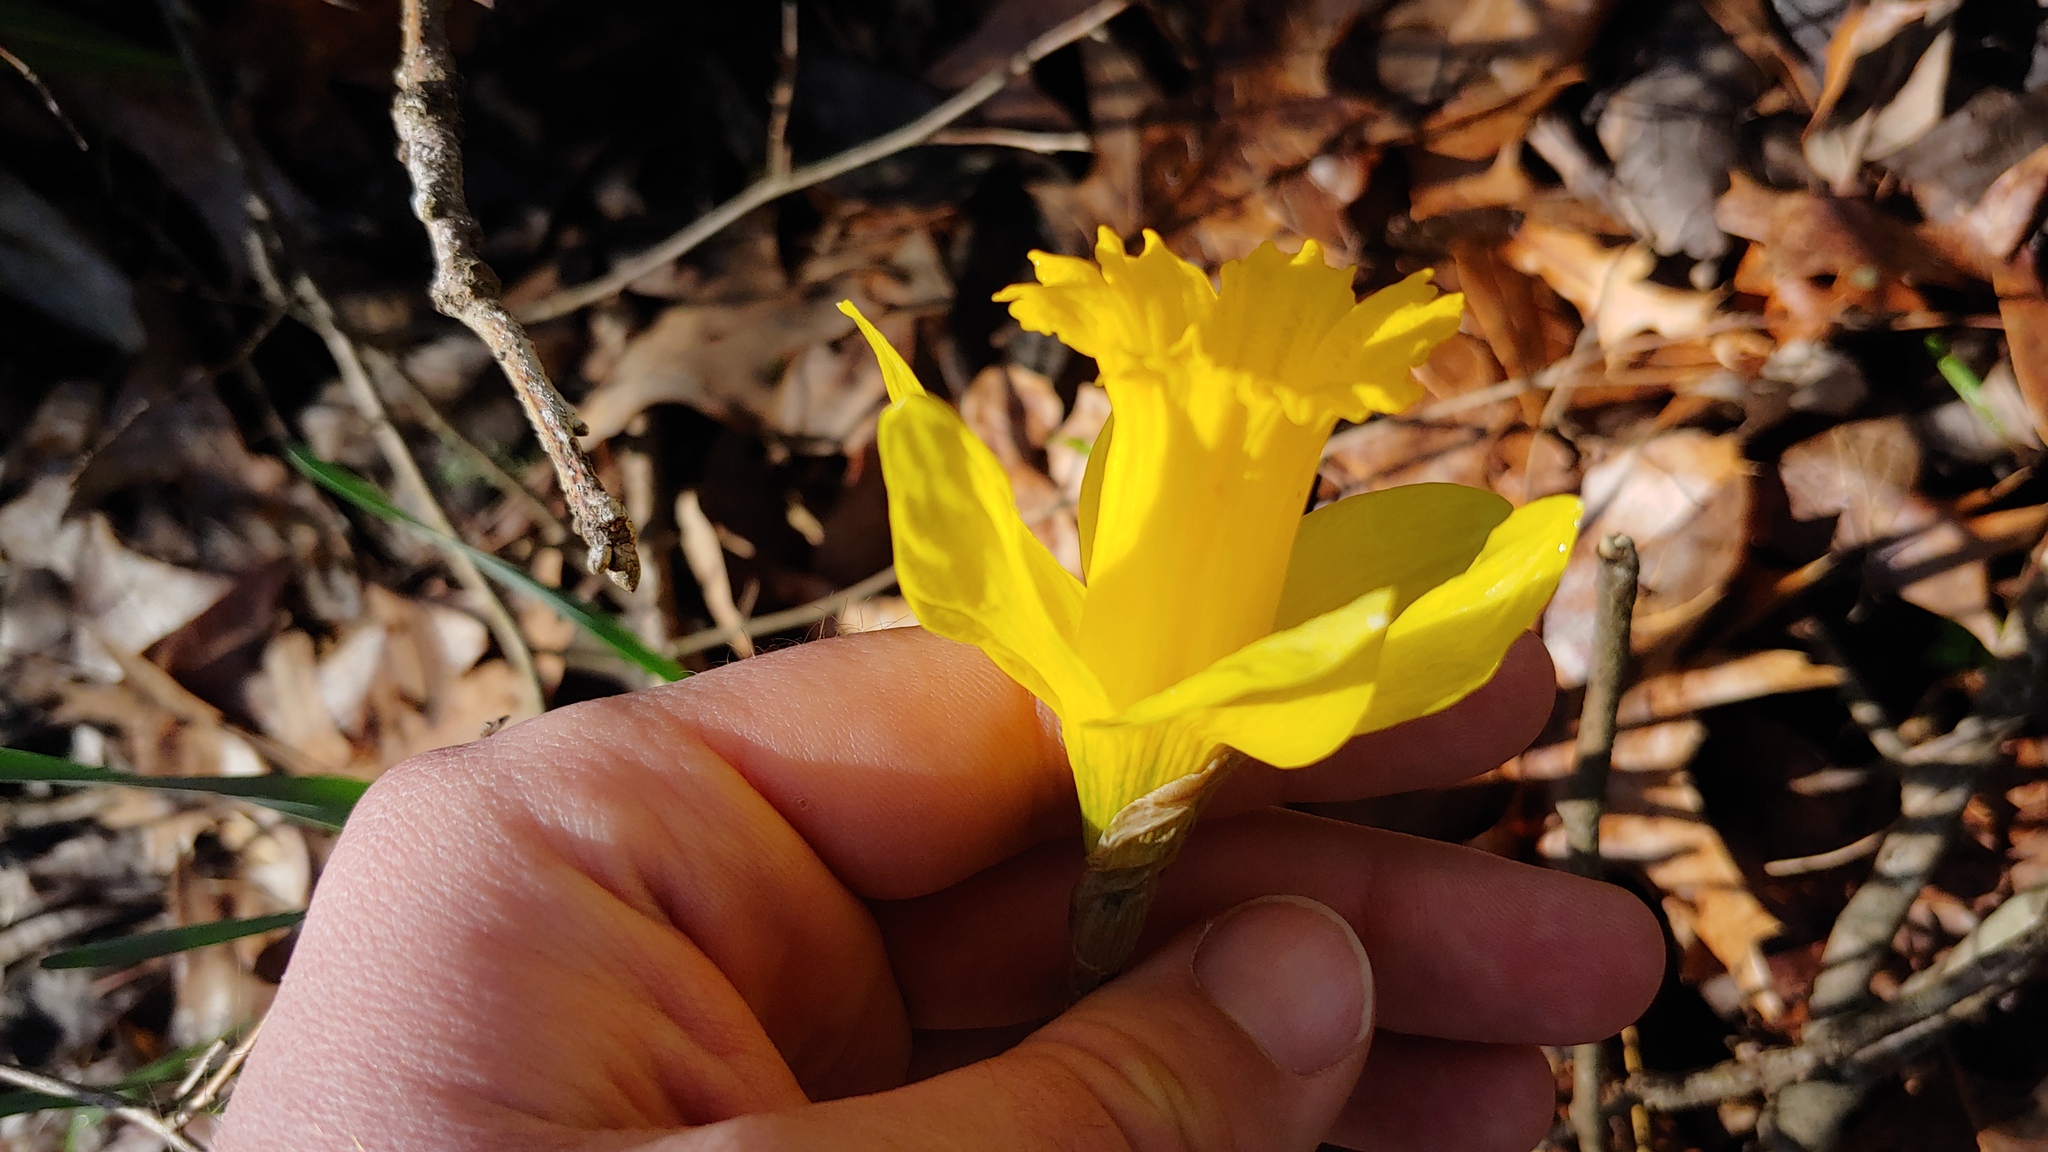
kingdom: Plantae
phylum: Tracheophyta
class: Liliopsida
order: Asparagales
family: Amaryllidaceae
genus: Narcissus
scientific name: Narcissus pseudonarcissus
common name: Daffodil
